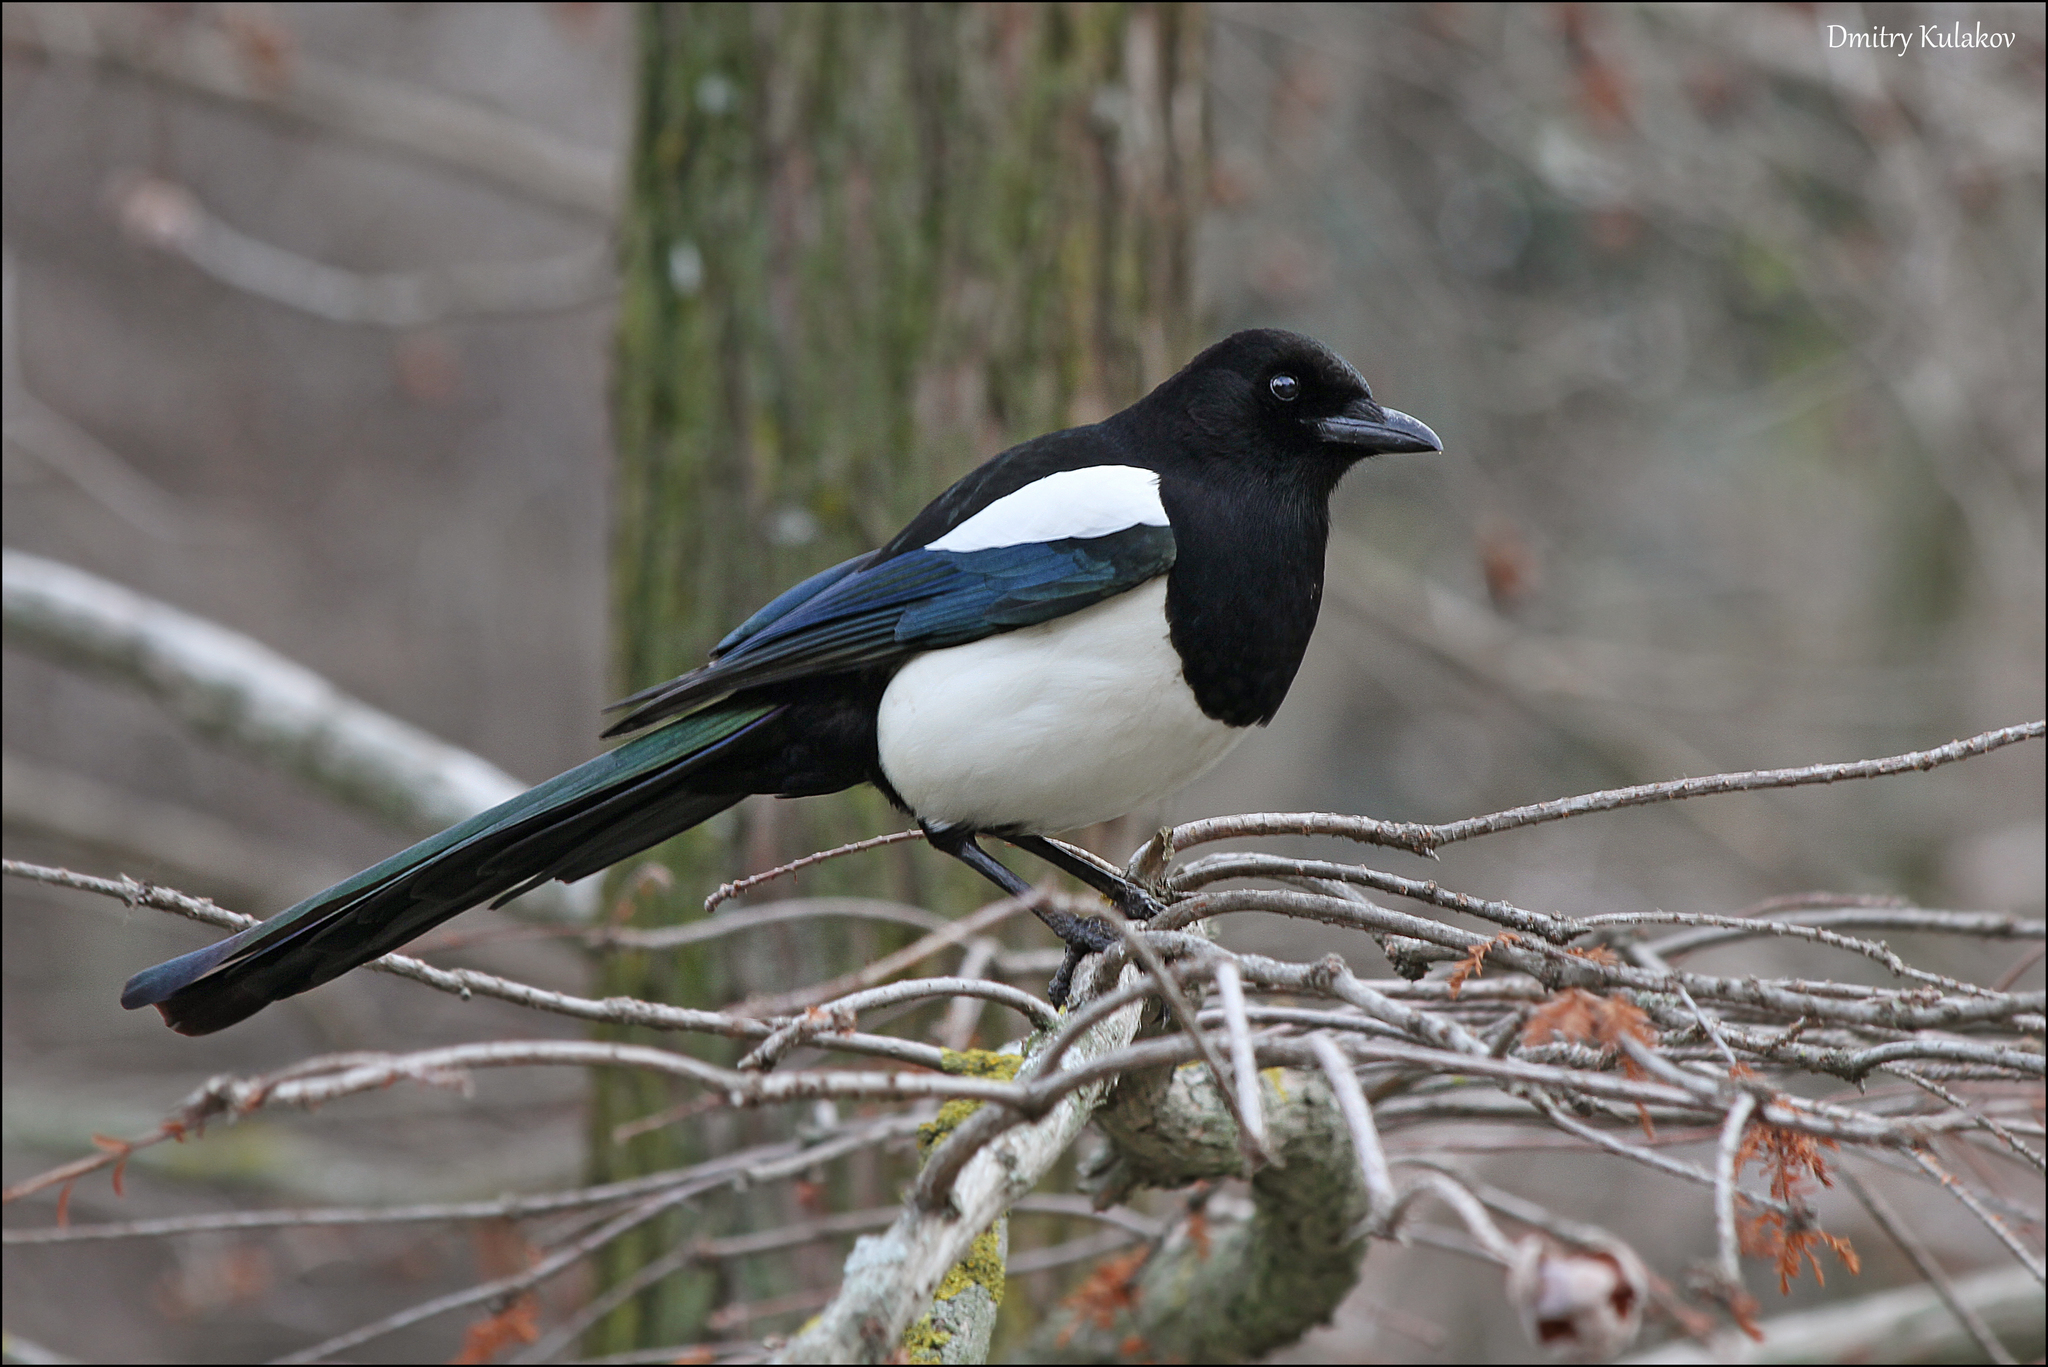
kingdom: Animalia
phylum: Chordata
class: Aves
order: Passeriformes
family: Corvidae
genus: Pica
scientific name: Pica pica
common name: Eurasian magpie
